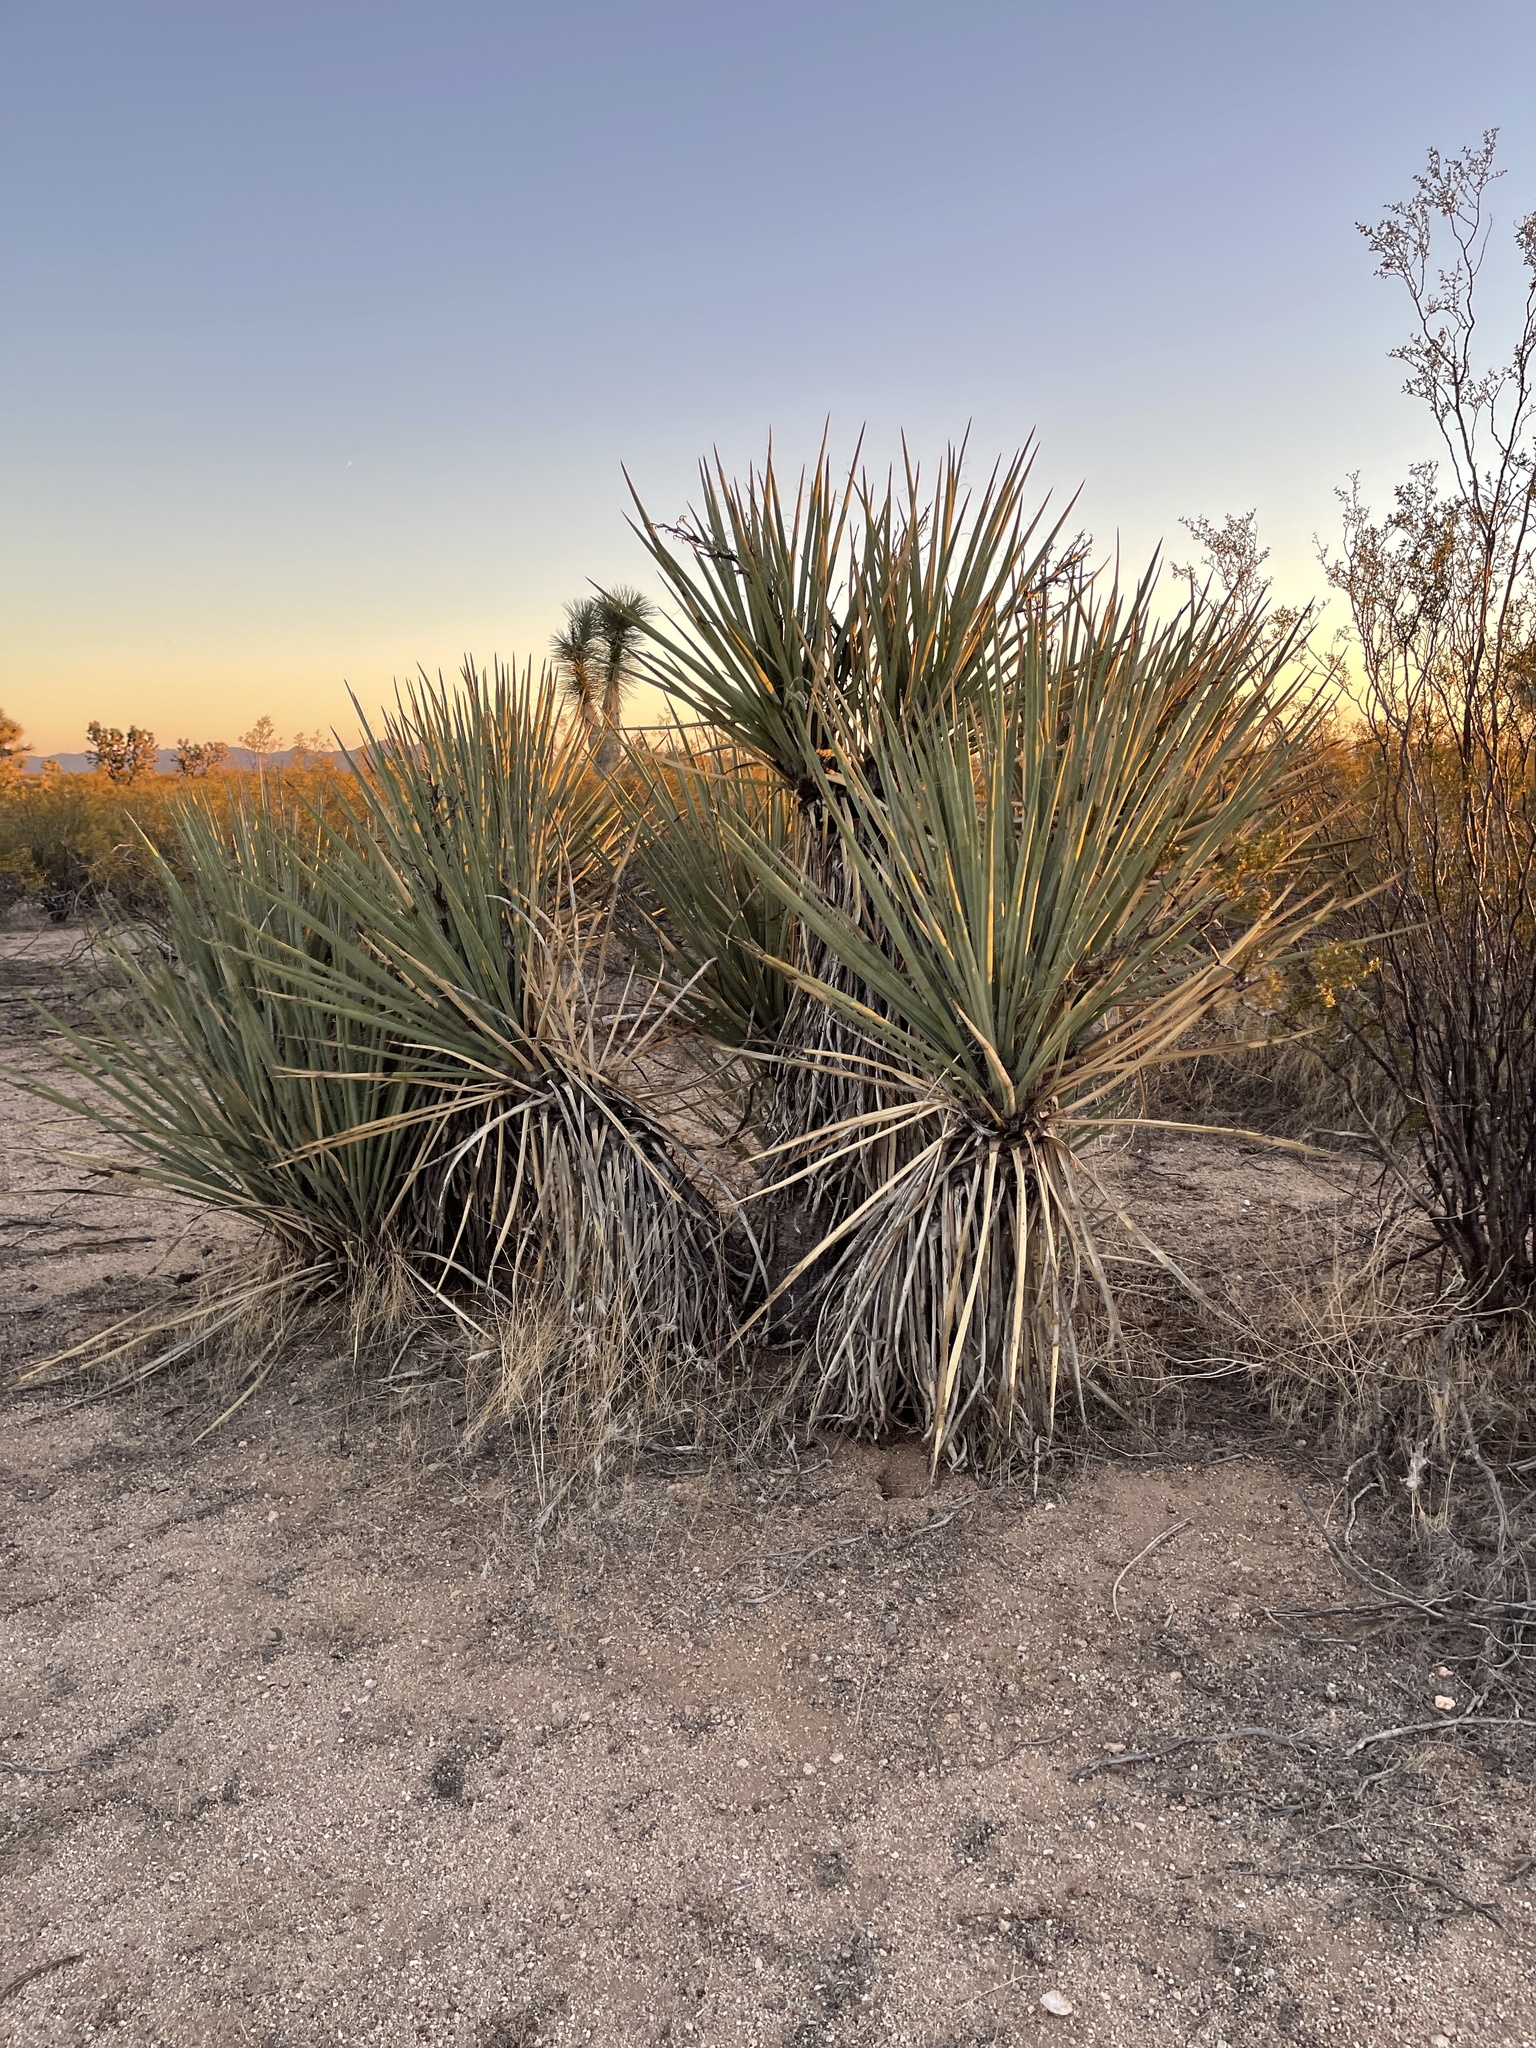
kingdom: Plantae
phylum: Tracheophyta
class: Liliopsida
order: Asparagales
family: Asparagaceae
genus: Yucca
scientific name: Yucca baccata
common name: Banana yucca
